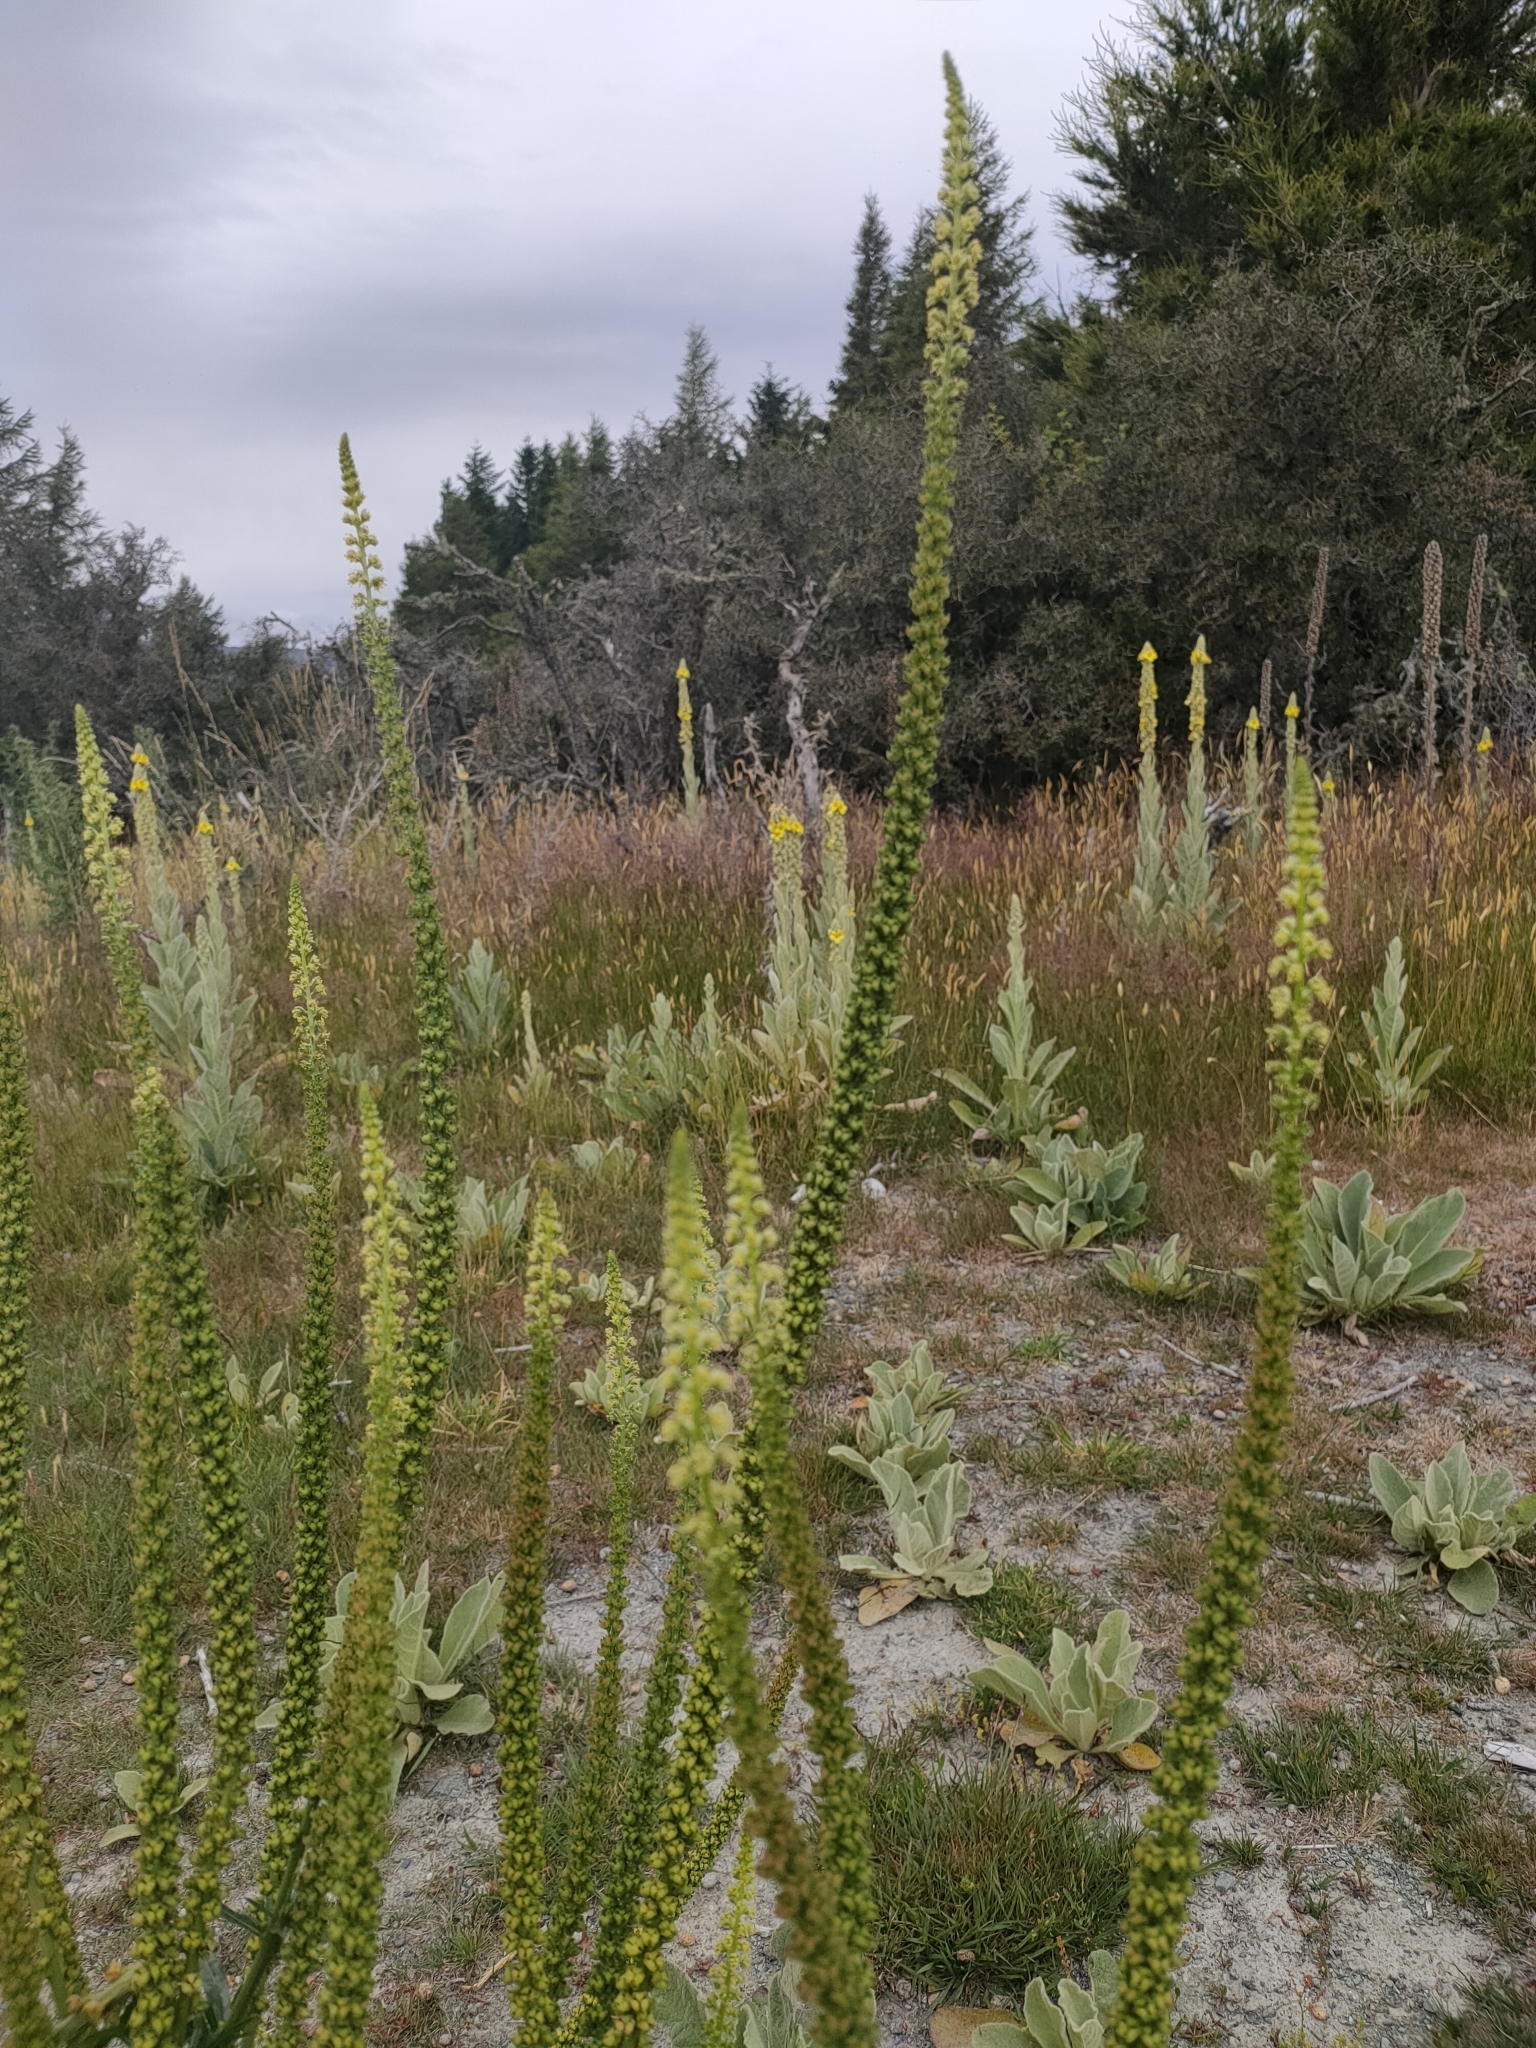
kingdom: Plantae
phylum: Tracheophyta
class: Magnoliopsida
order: Brassicales
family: Resedaceae
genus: Reseda
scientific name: Reseda luteola
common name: Weld
